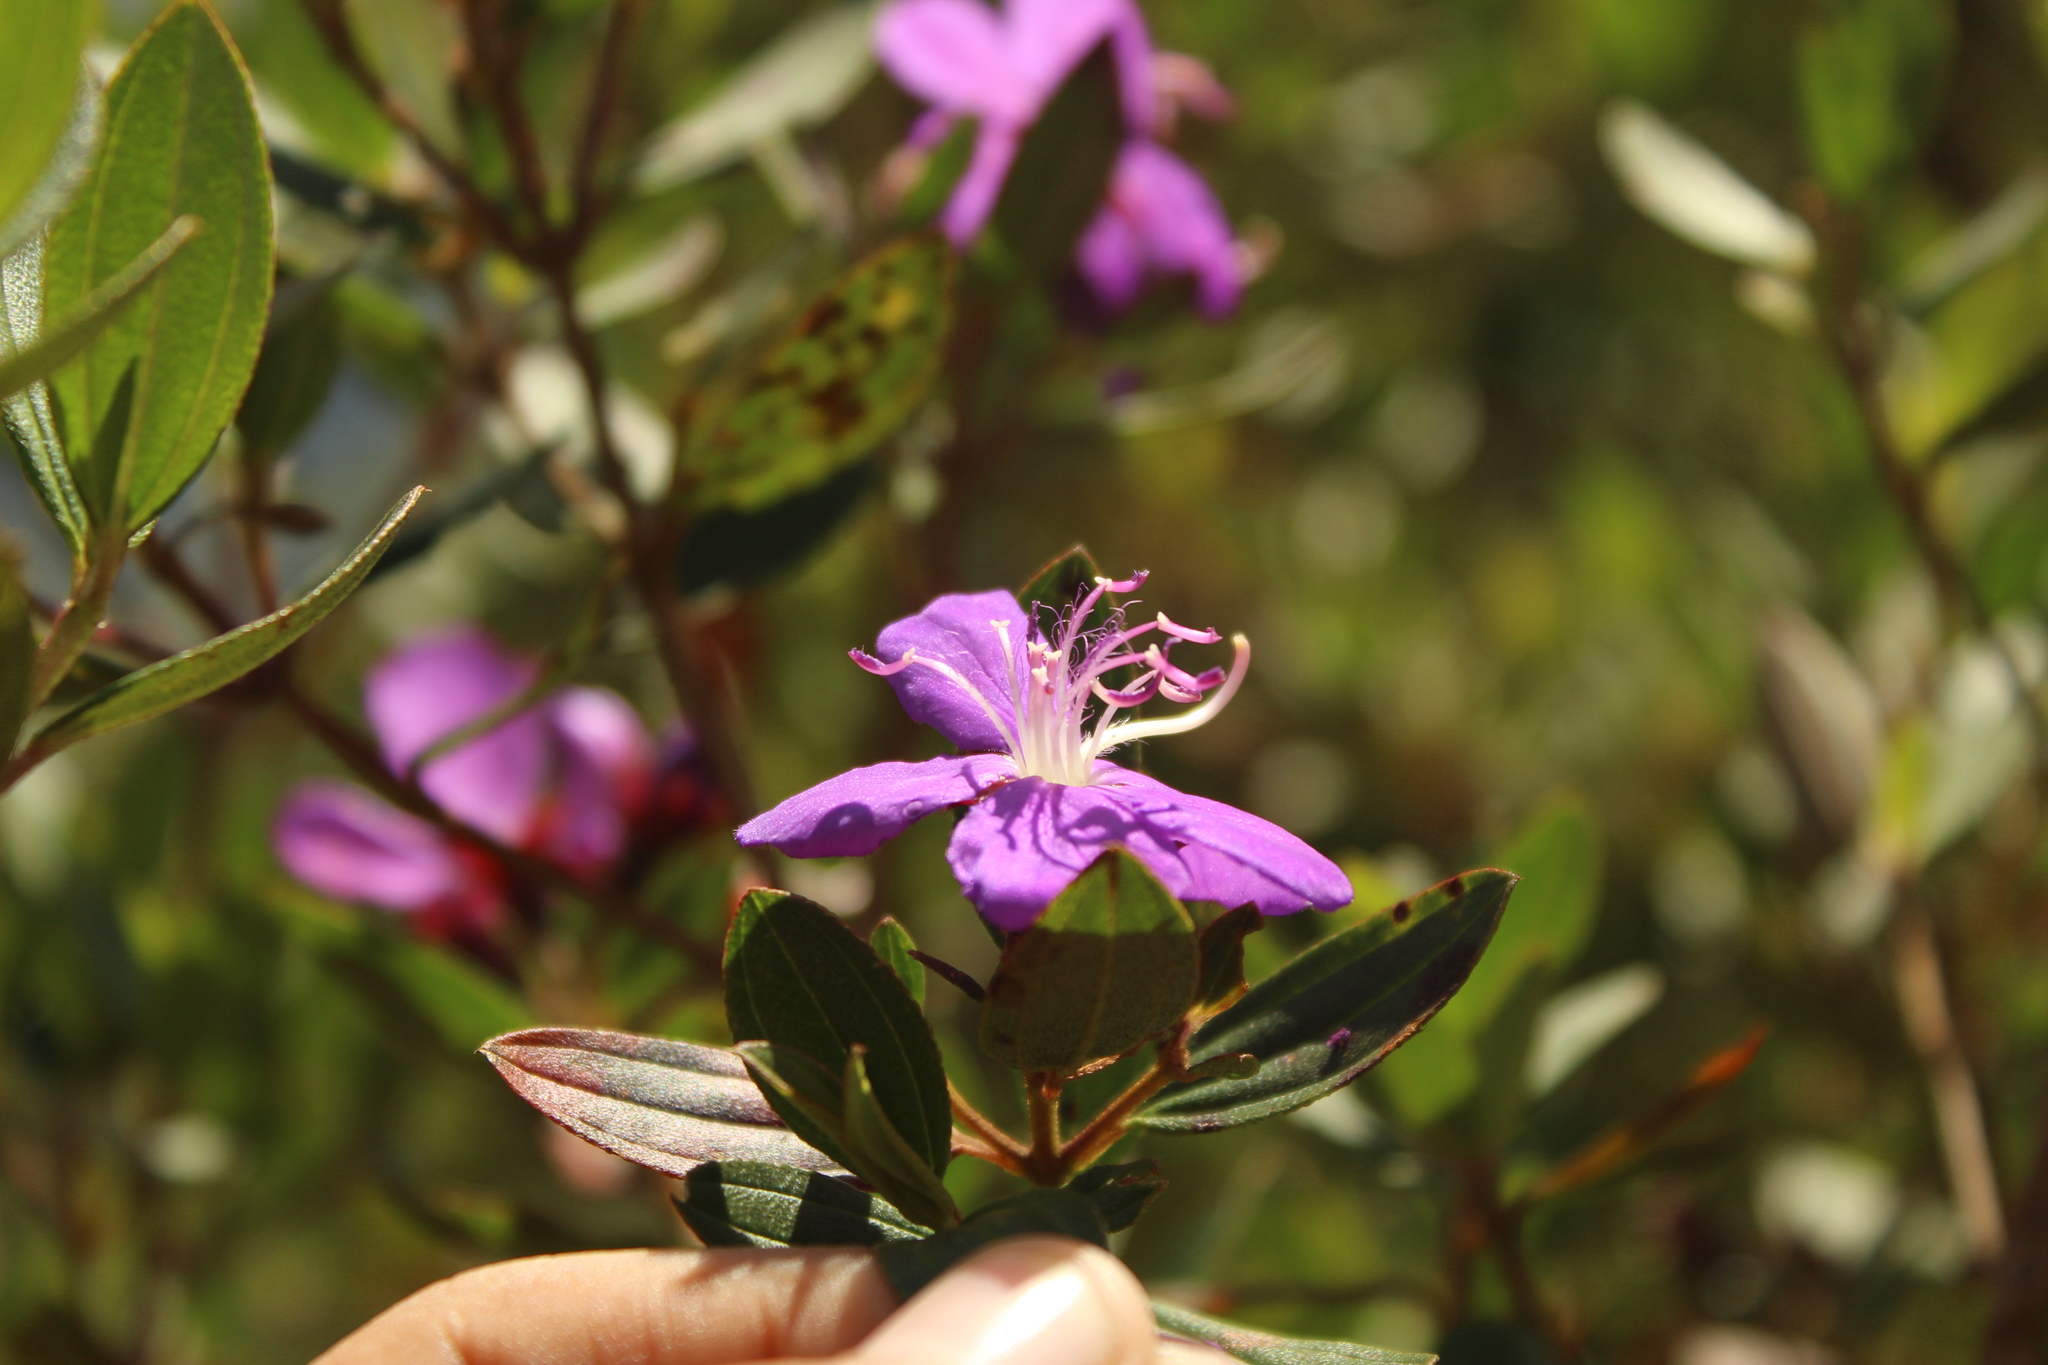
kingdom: Plantae
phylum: Tracheophyta
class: Magnoliopsida
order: Myrtales
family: Melastomataceae
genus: Pleroma
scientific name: Pleroma martiale
